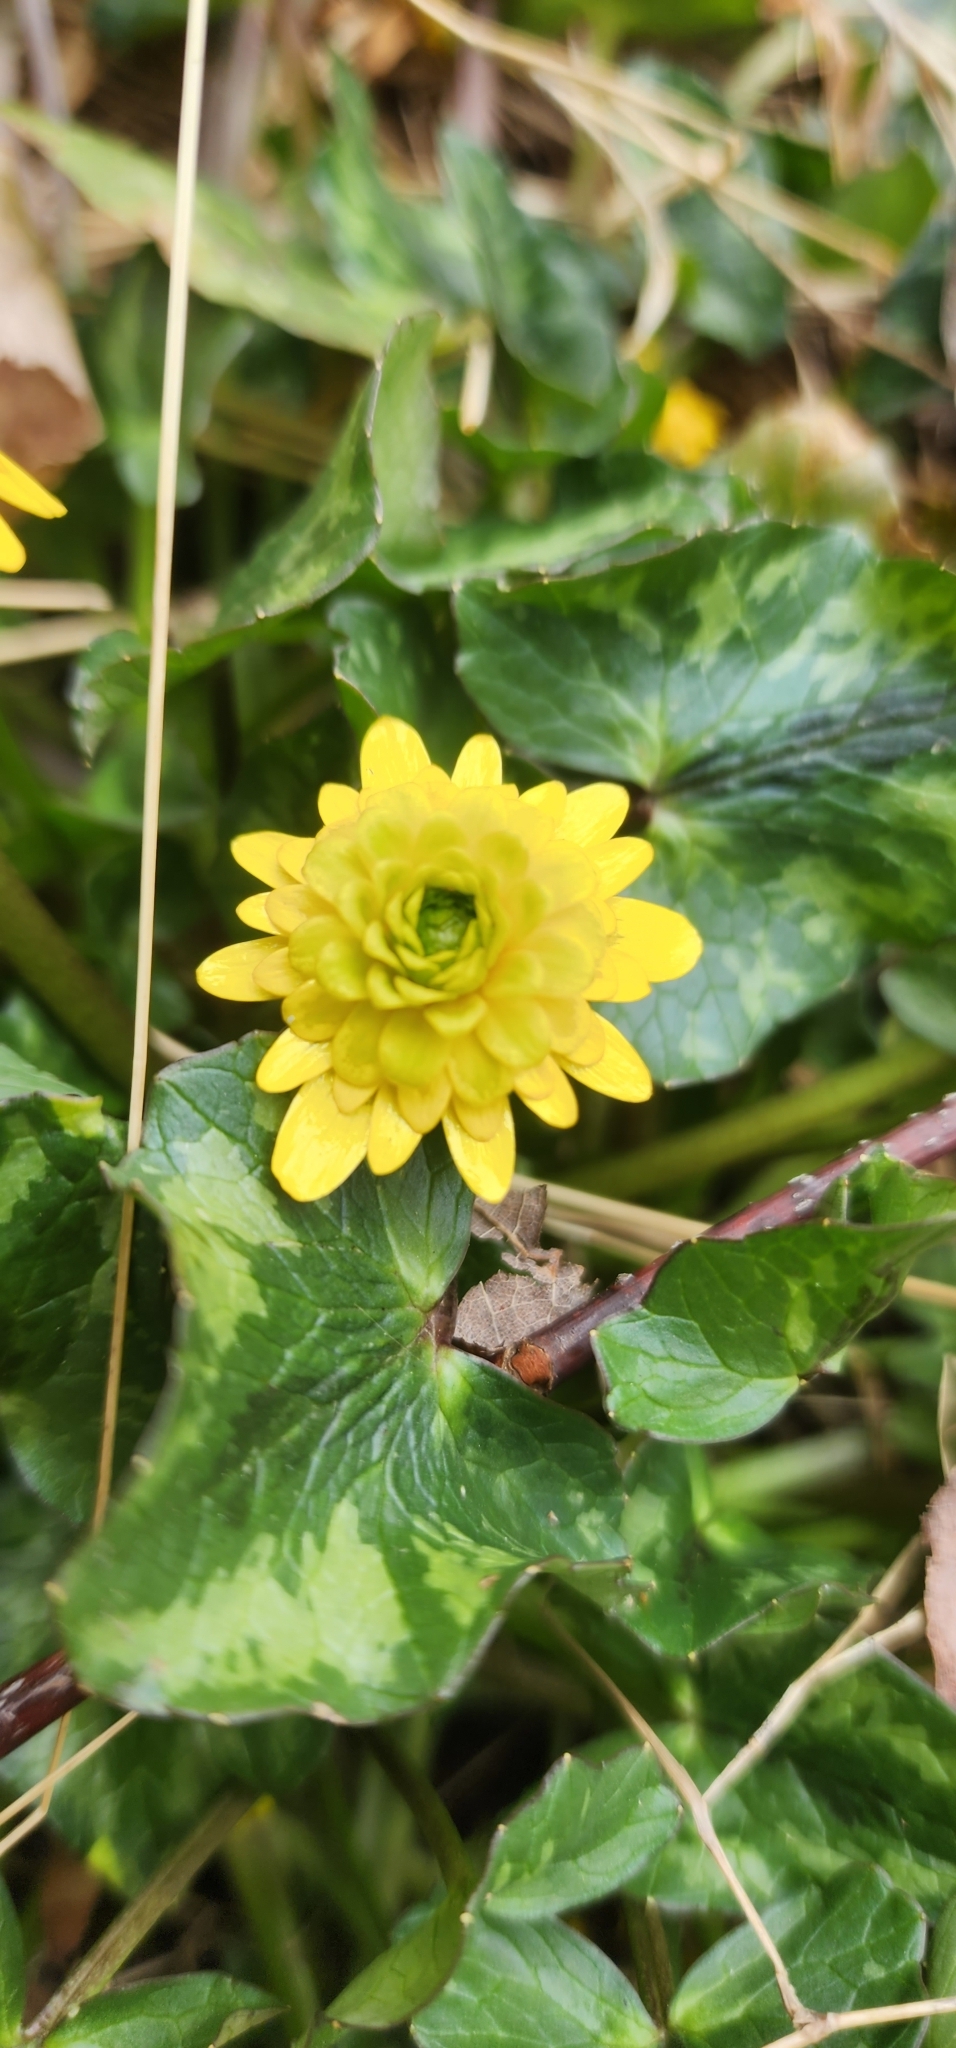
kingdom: Plantae
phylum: Tracheophyta
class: Magnoliopsida
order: Ranunculales
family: Ranunculaceae
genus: Ficaria
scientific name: Ficaria verna
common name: Lesser celandine
